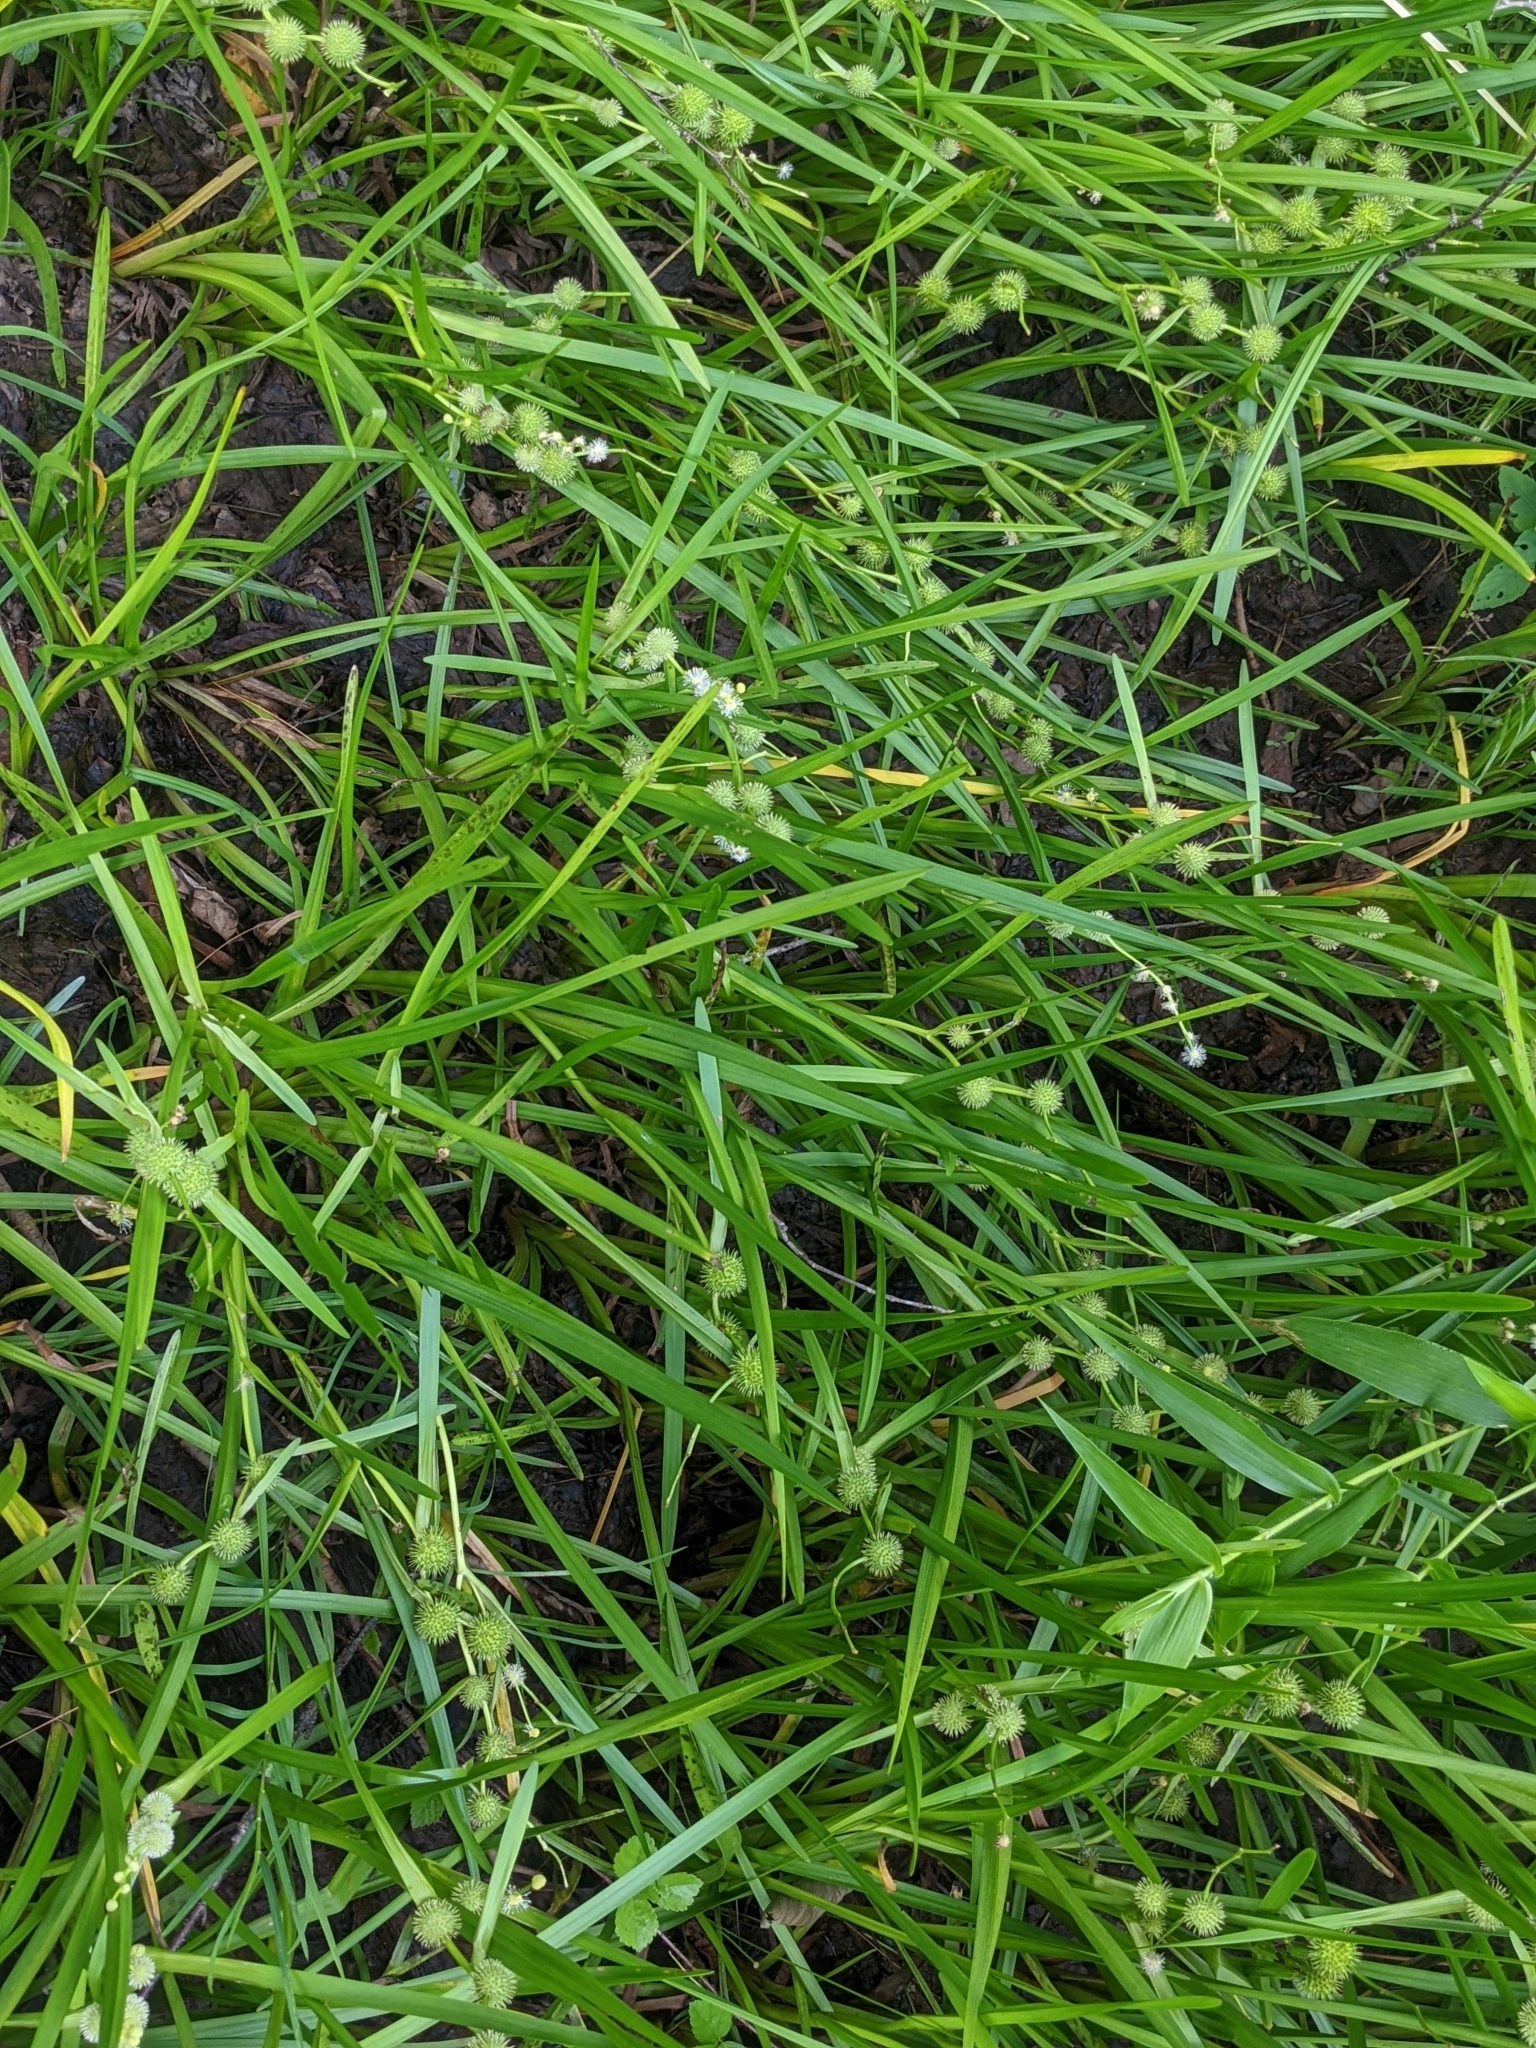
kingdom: Plantae
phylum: Tracheophyta
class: Liliopsida
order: Poales
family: Typhaceae
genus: Sparganium
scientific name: Sparganium americanum
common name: American burreed
